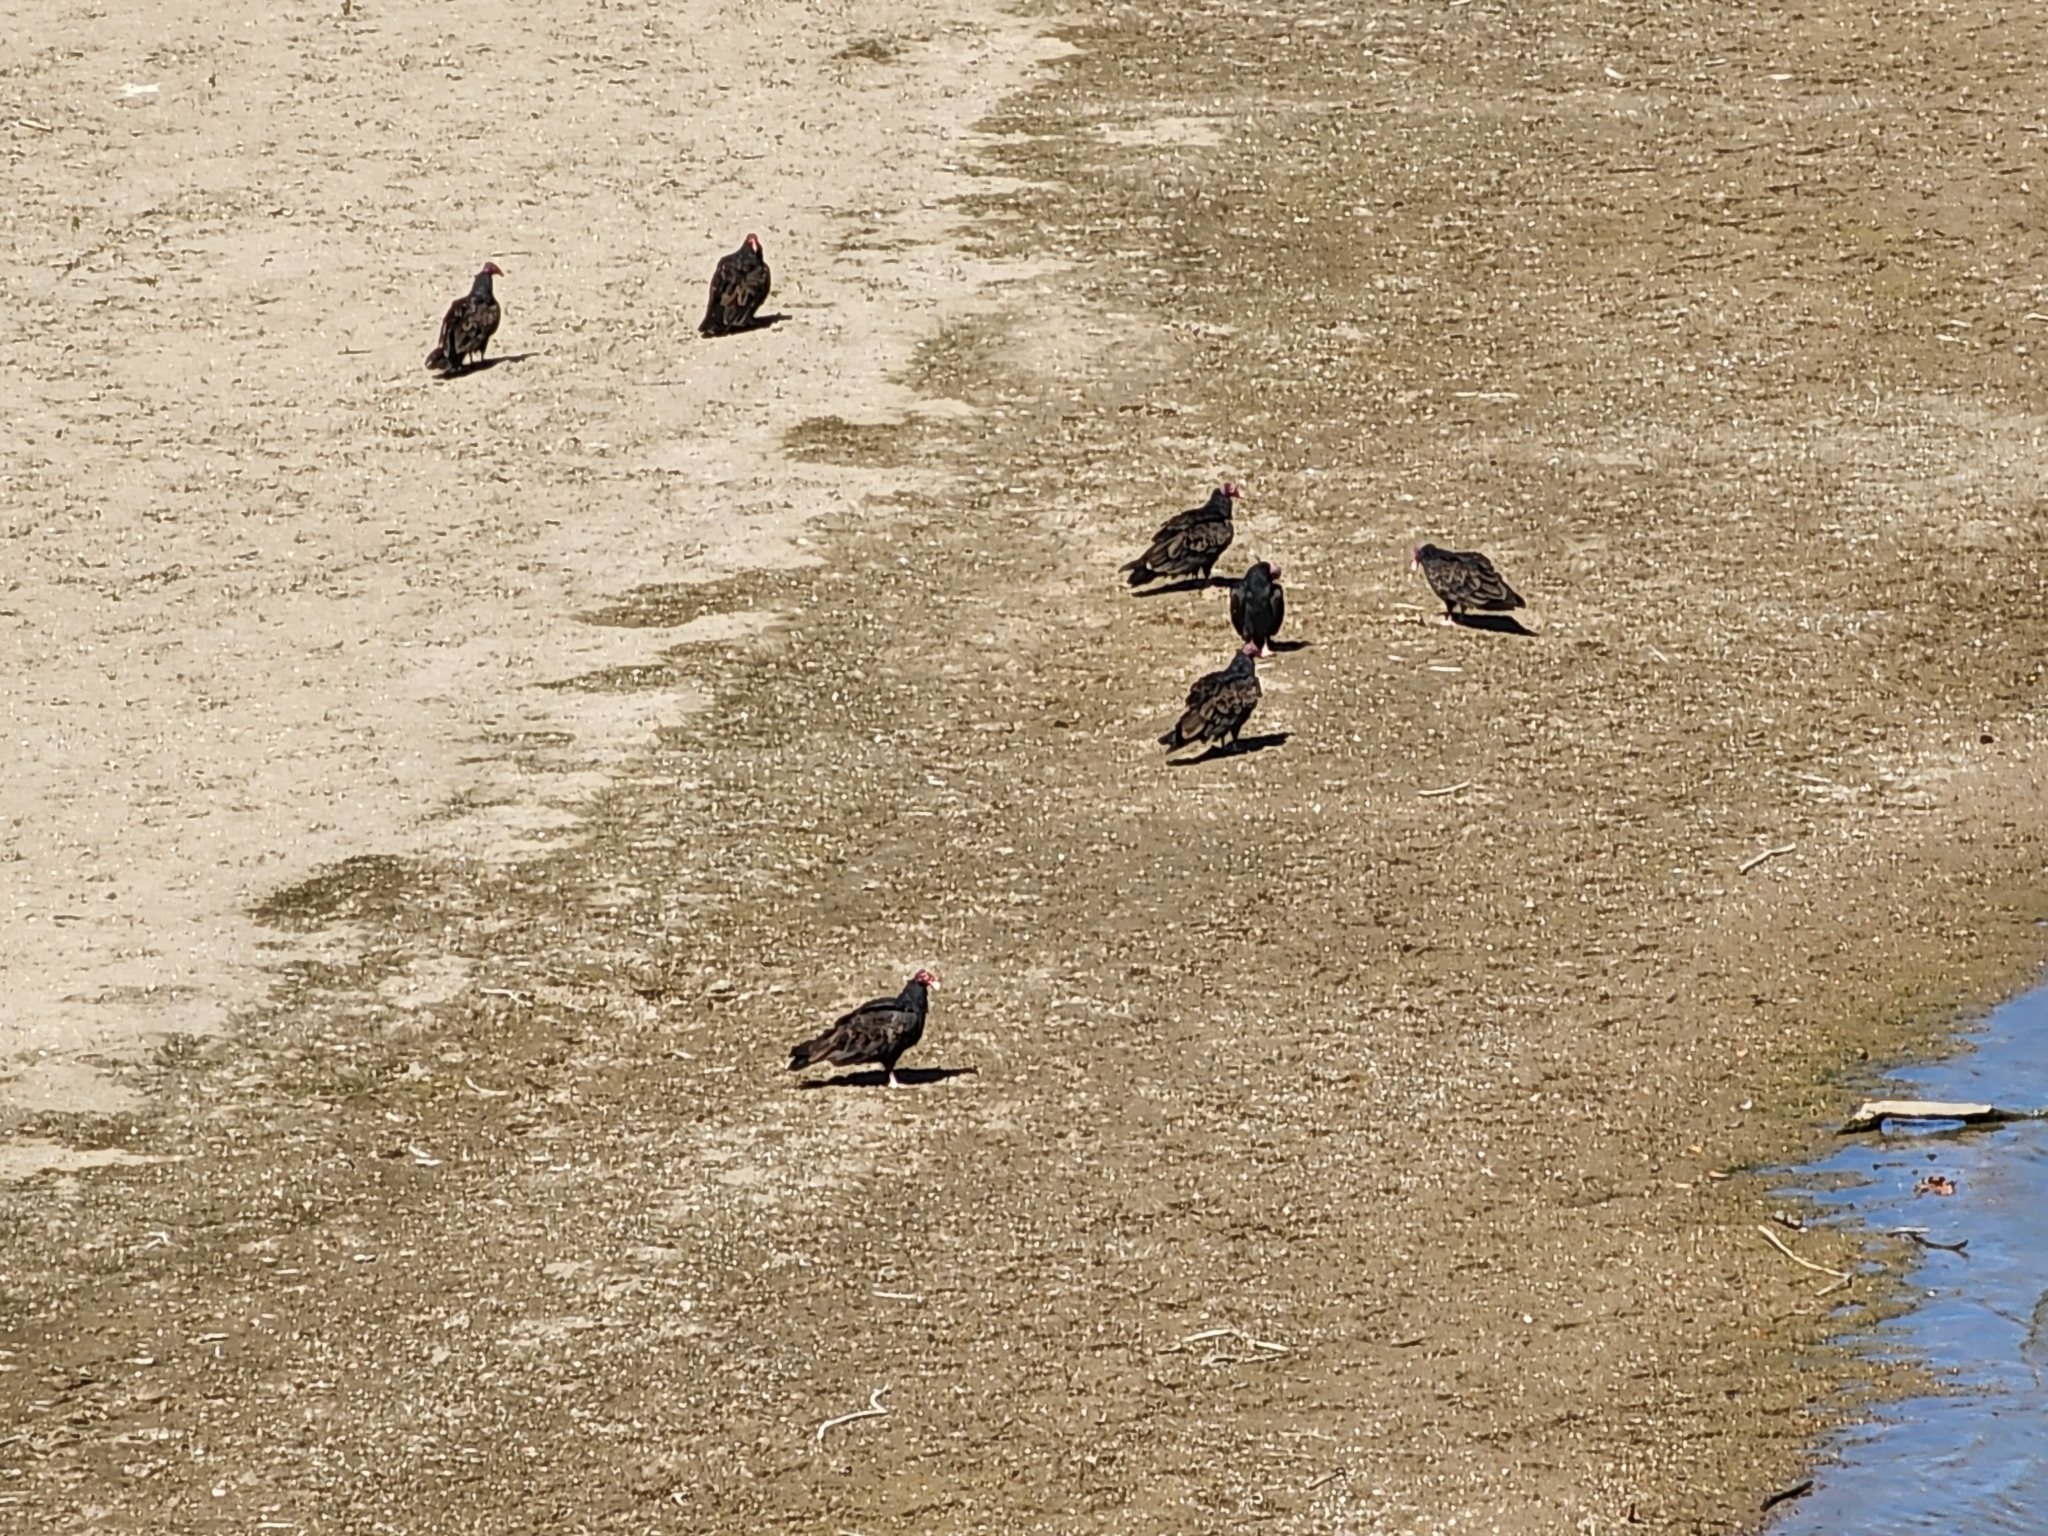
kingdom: Animalia
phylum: Chordata
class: Aves
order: Accipitriformes
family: Cathartidae
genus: Cathartes
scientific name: Cathartes aura
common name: Turkey vulture
